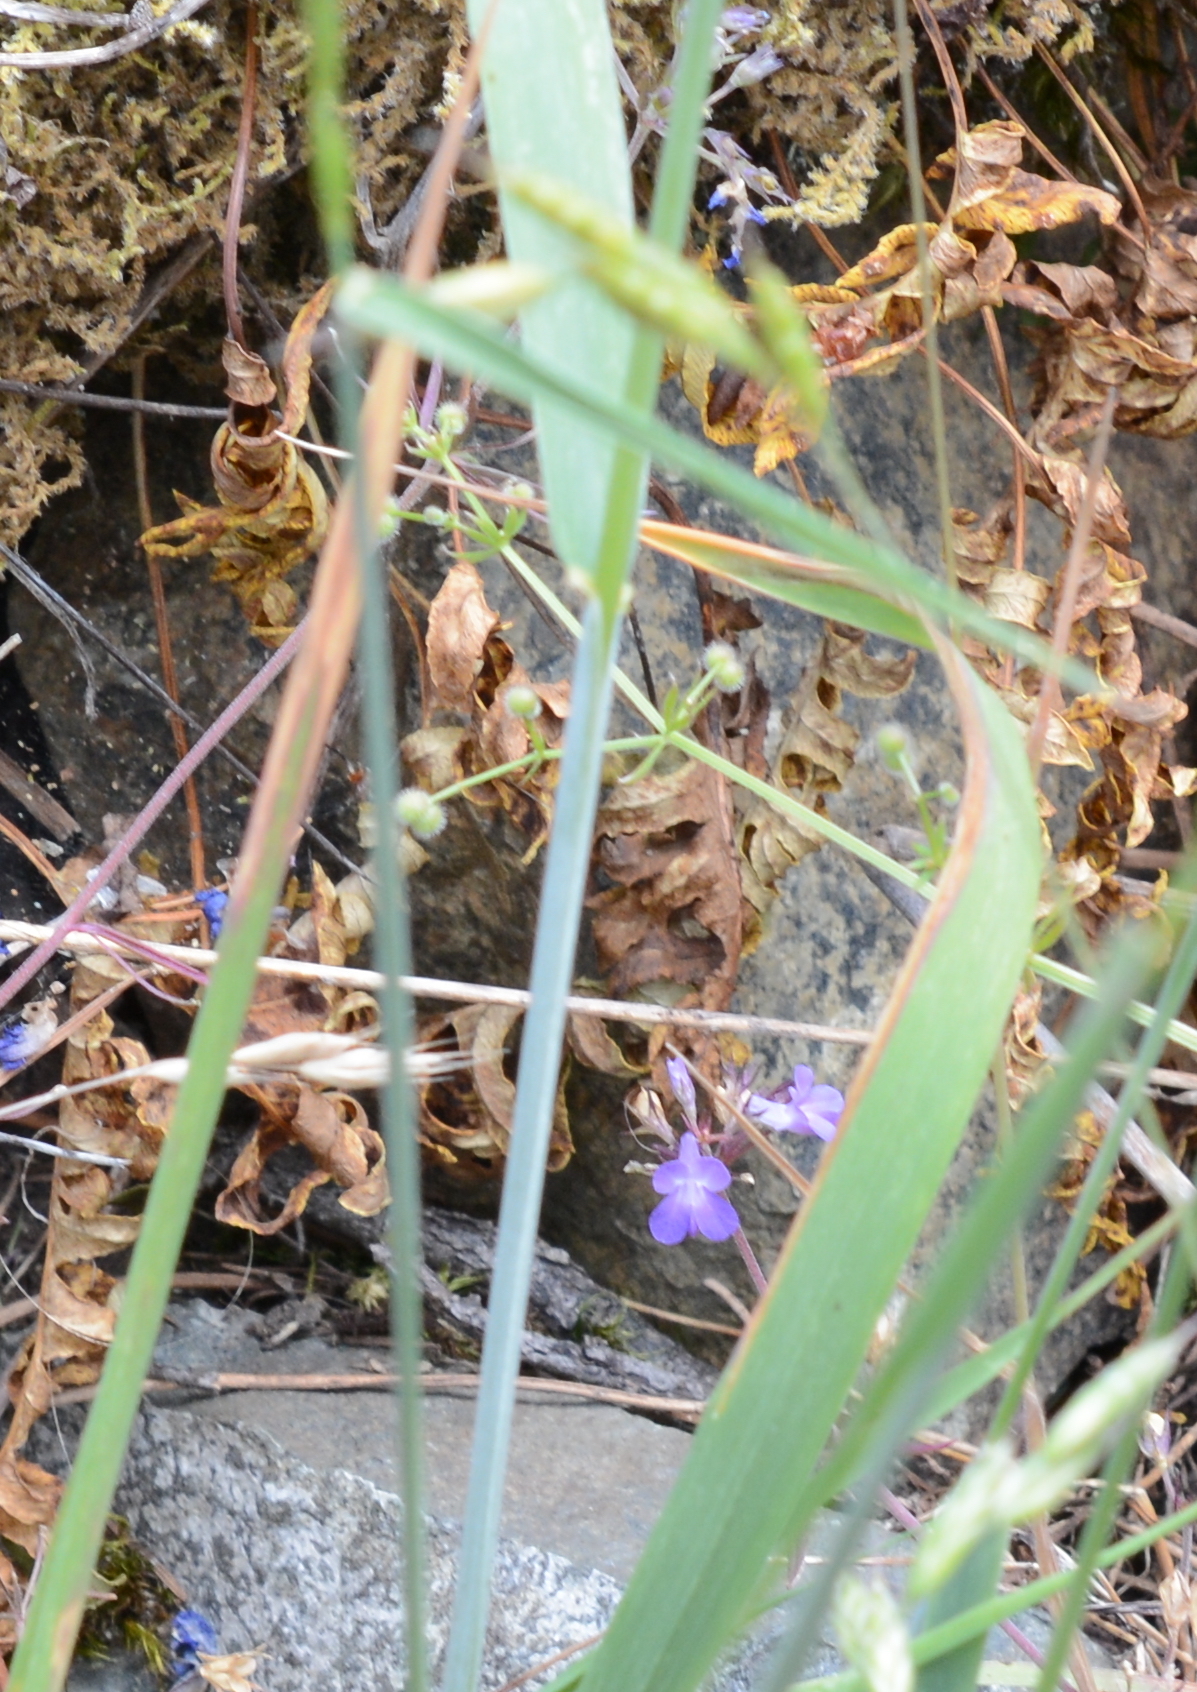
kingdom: Plantae
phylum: Tracheophyta
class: Magnoliopsida
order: Lamiales
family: Plantaginaceae
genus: Collinsia
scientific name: Collinsia grandiflora
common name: Large-flower blue-eyed-mary
